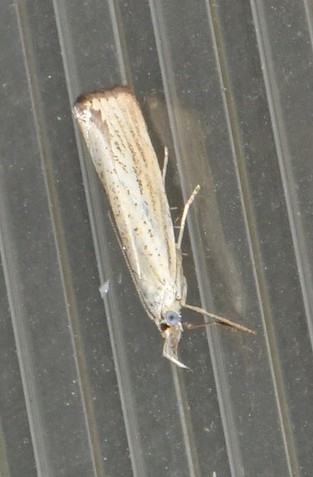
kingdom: Animalia
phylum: Arthropoda
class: Insecta
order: Lepidoptera
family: Crambidae
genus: Agriphila
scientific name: Agriphila straminella
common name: Straw grass-veneer
